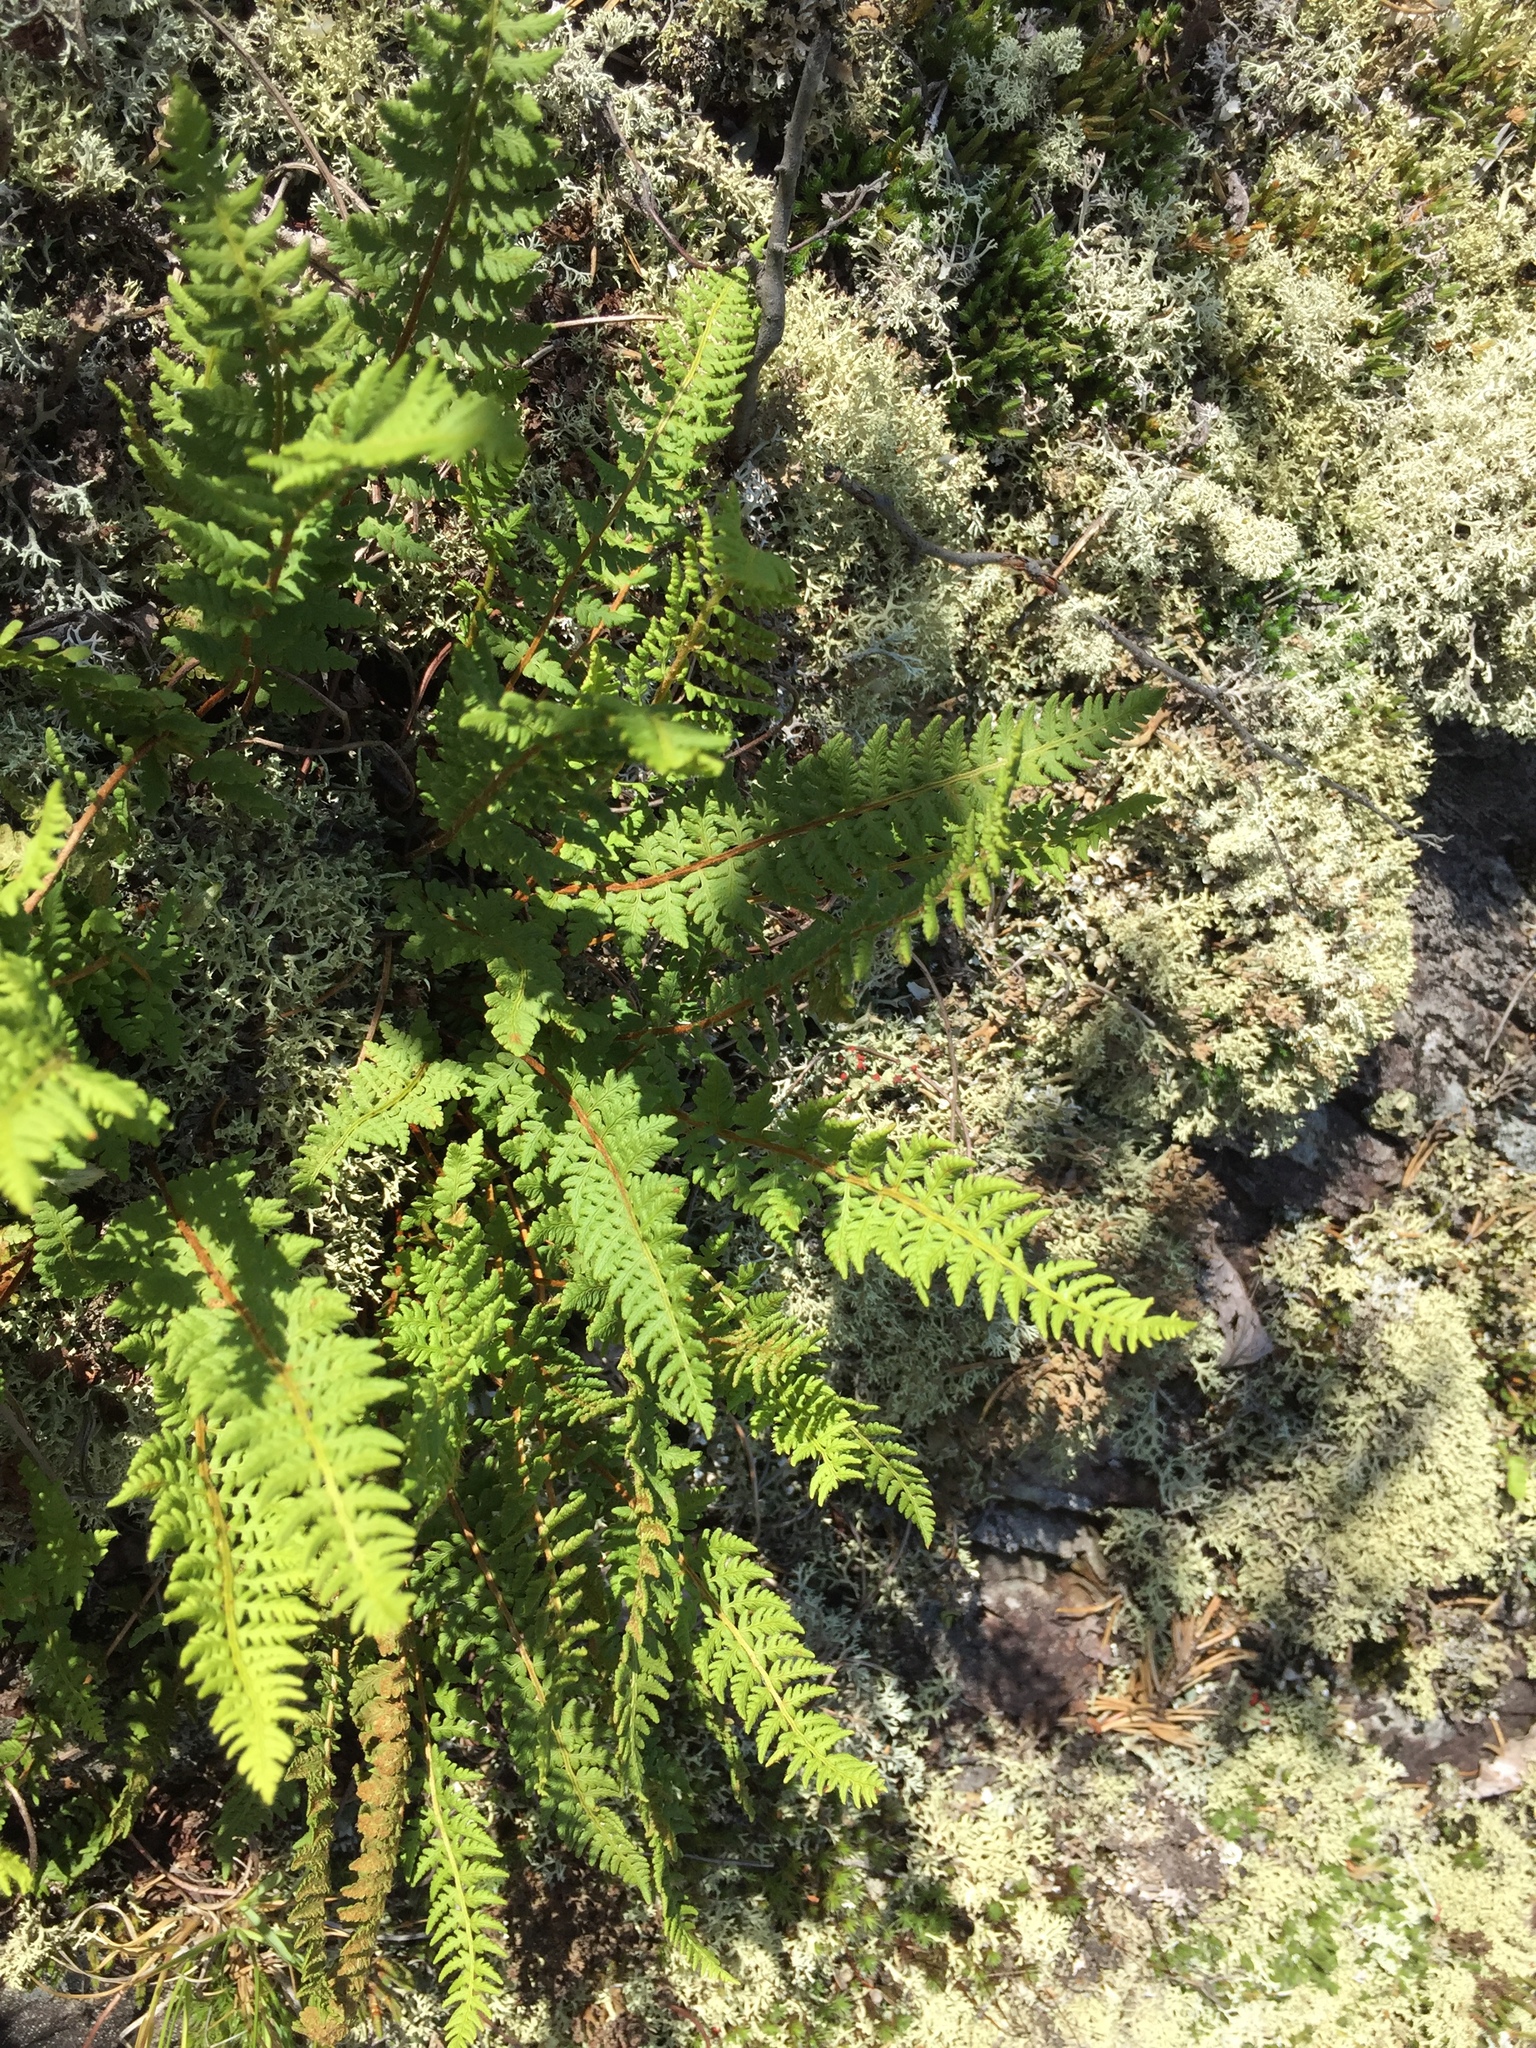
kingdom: Plantae
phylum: Tracheophyta
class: Polypodiopsida
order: Polypodiales
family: Woodsiaceae
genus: Woodsia
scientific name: Woodsia ilvensis
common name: Fragrant woodsia
